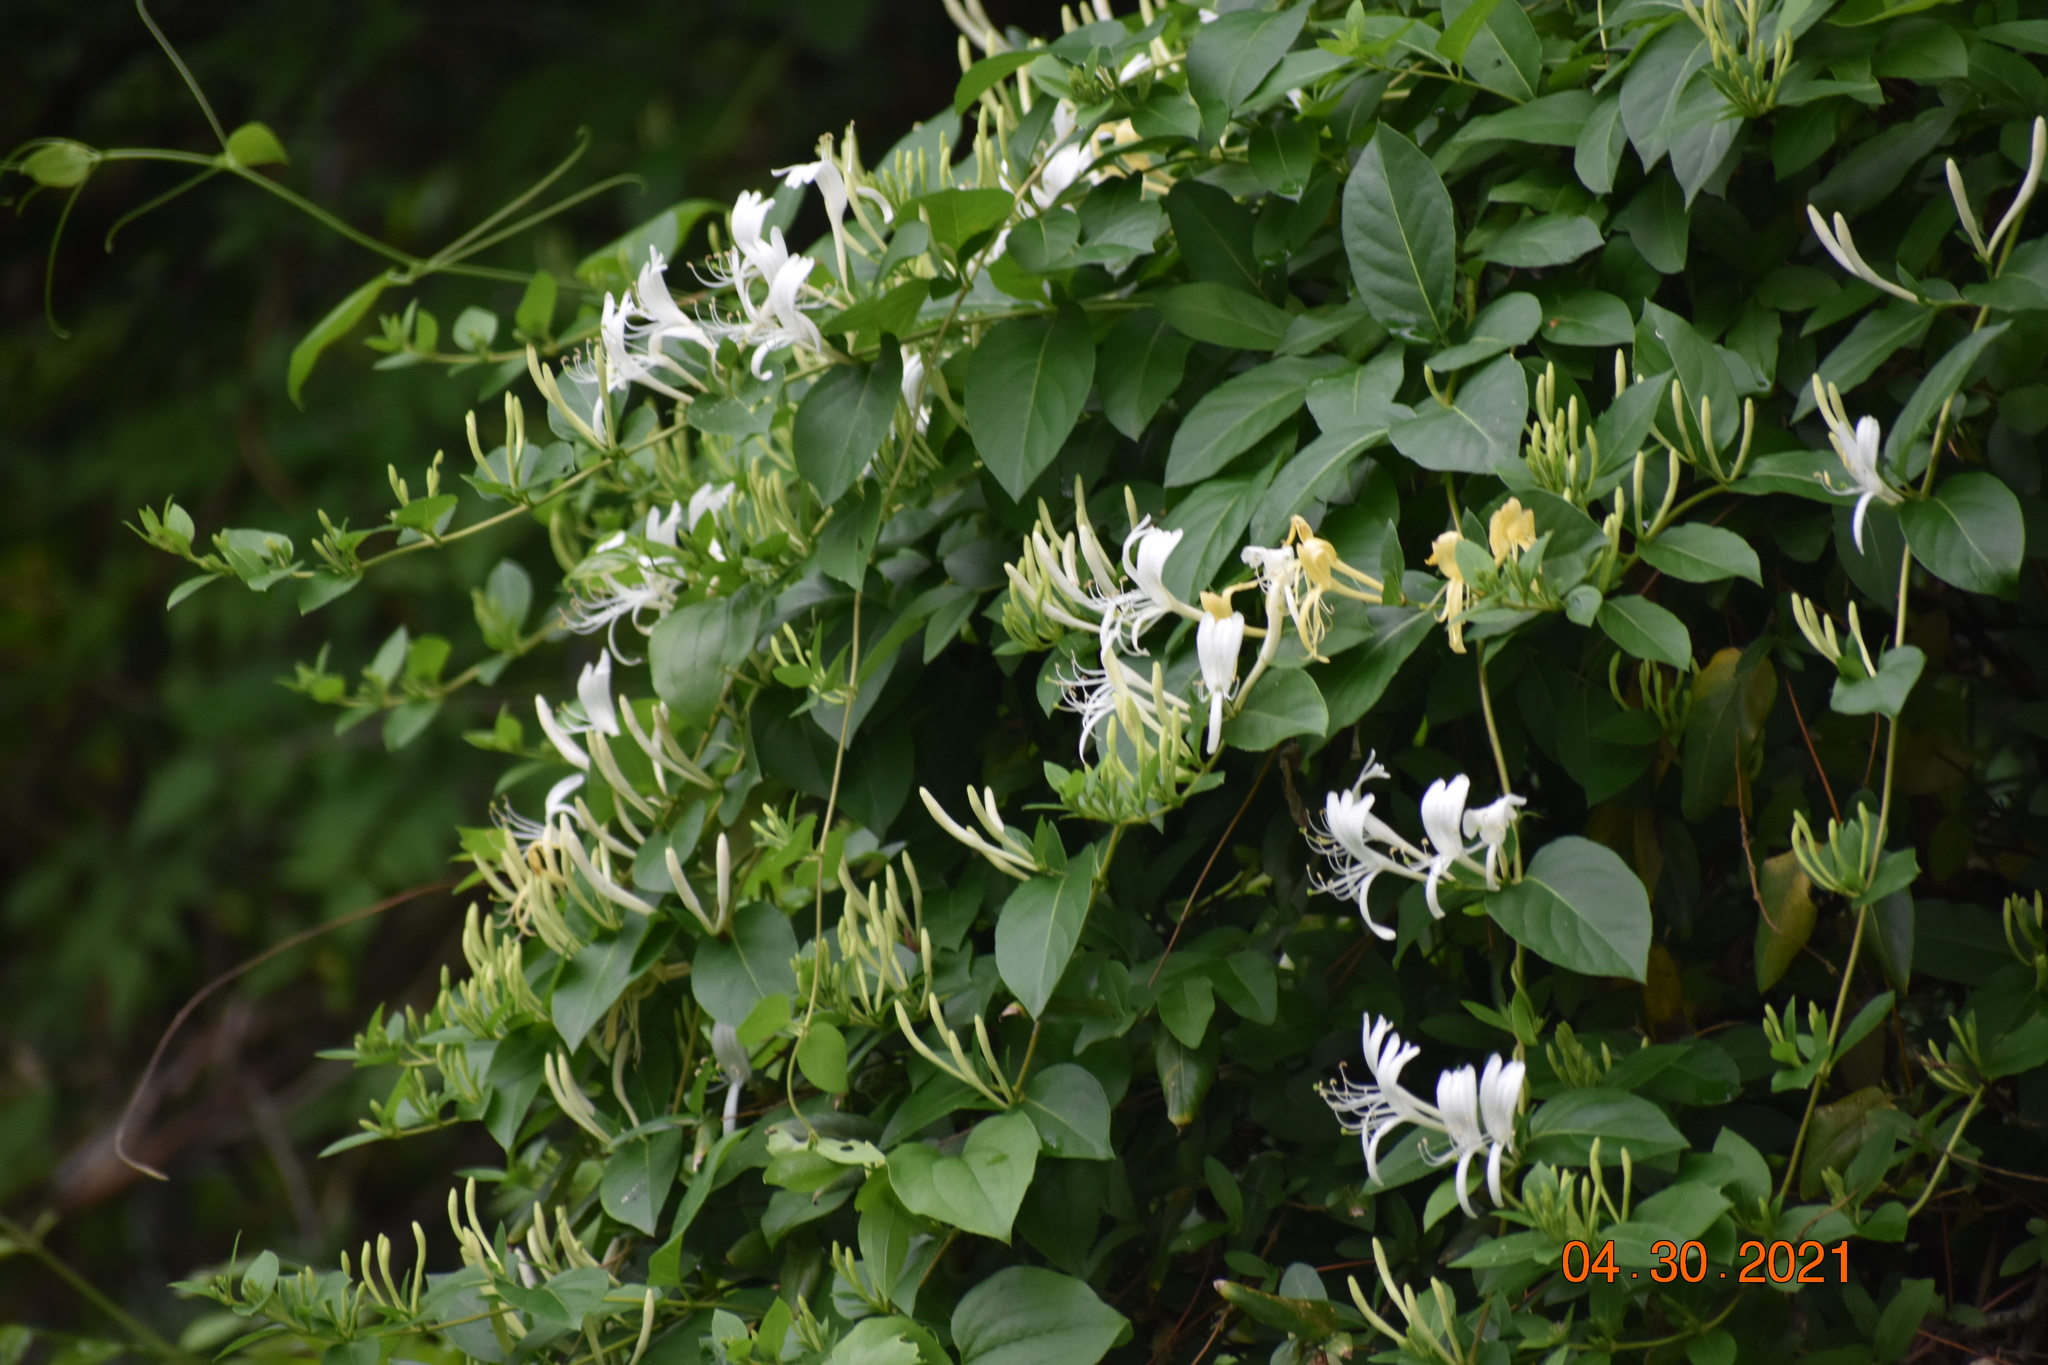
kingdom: Plantae
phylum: Tracheophyta
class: Magnoliopsida
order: Dipsacales
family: Caprifoliaceae
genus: Lonicera
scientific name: Lonicera japonica
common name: Japanese honeysuckle
